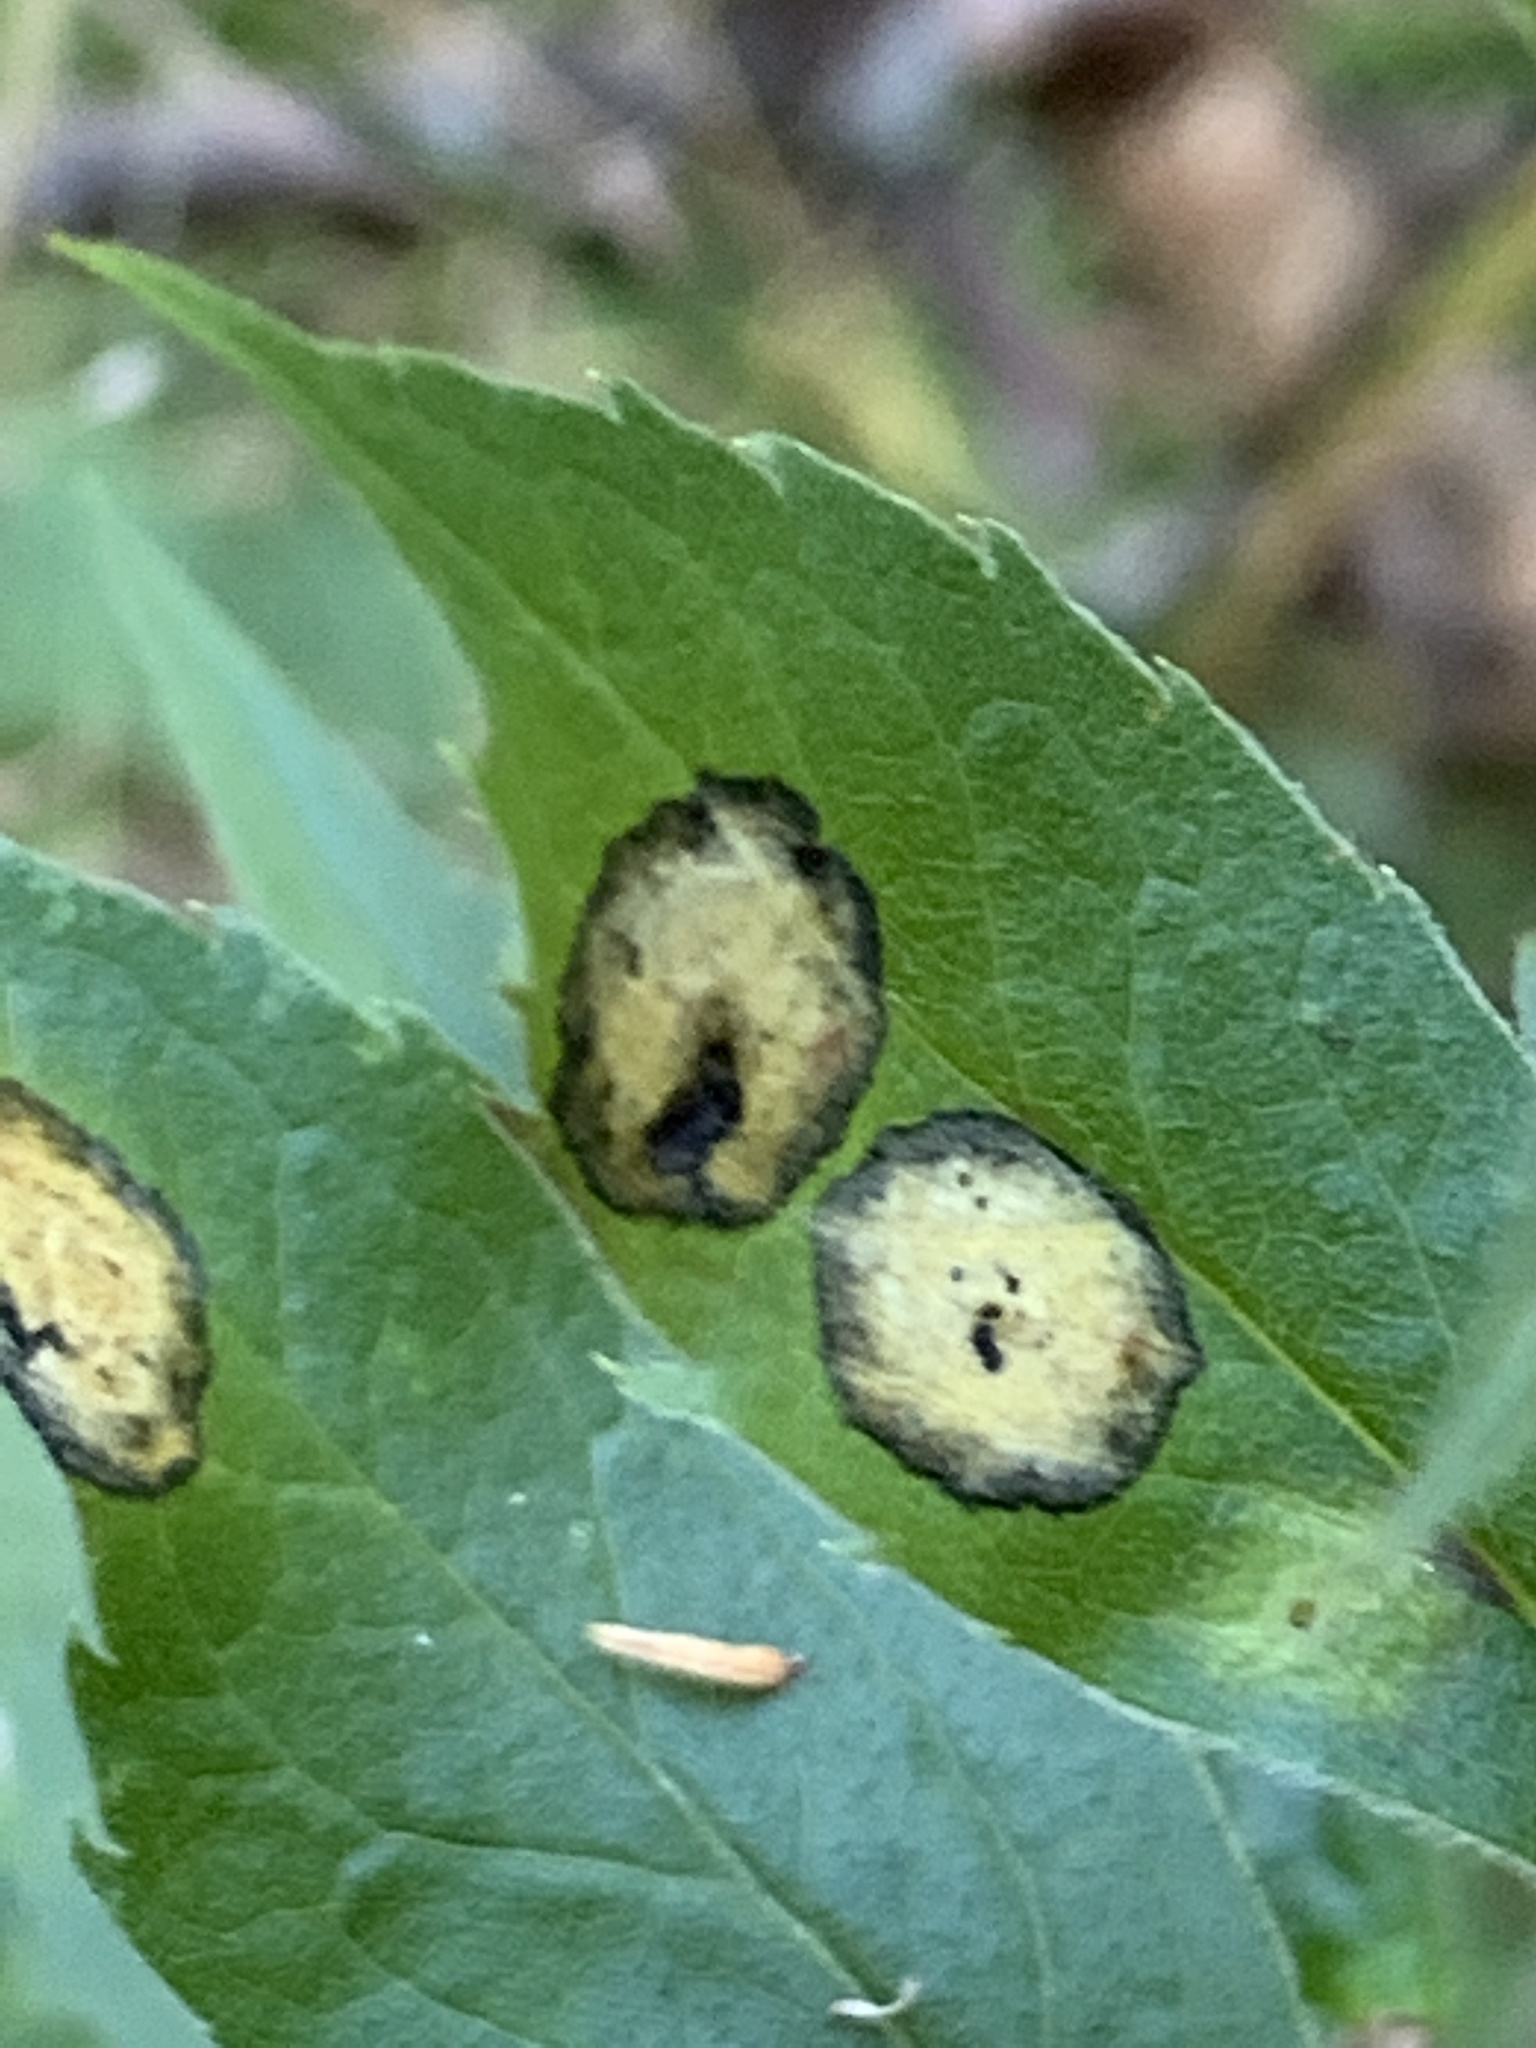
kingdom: Animalia
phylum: Arthropoda
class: Insecta
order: Diptera
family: Cecidomyiidae
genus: Asteromyia
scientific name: Asteromyia carbonifera
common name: Carbonifera goldenrod gall midge
